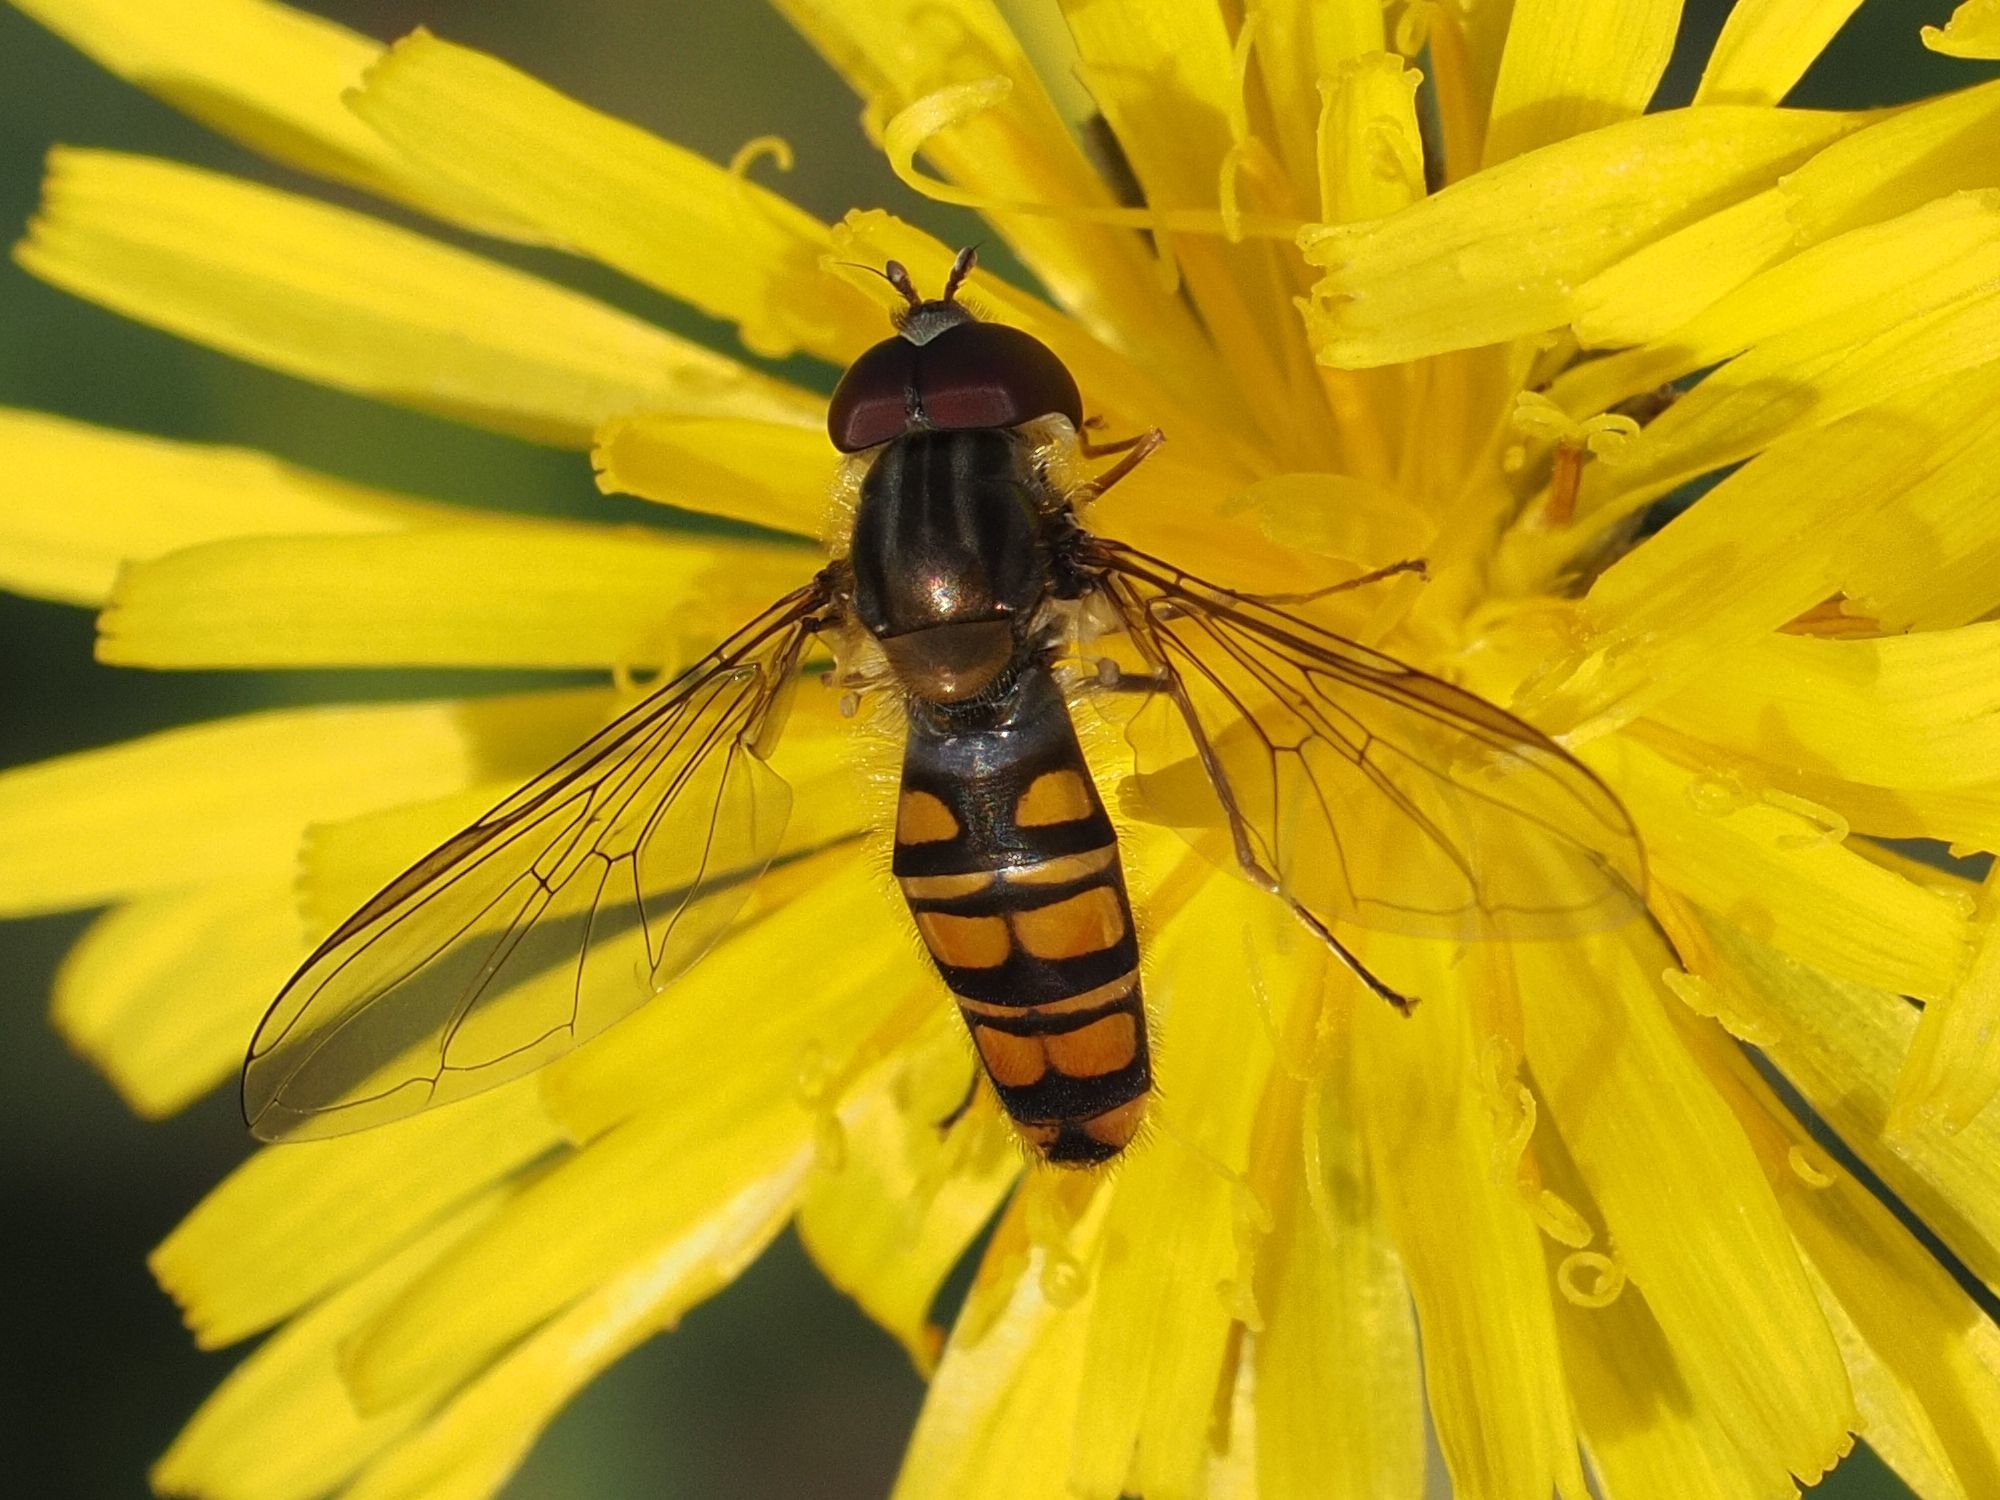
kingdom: Animalia
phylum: Arthropoda
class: Insecta
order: Diptera
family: Syrphidae
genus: Episyrphus
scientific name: Episyrphus balteatus
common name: Marmalade hoverfly
